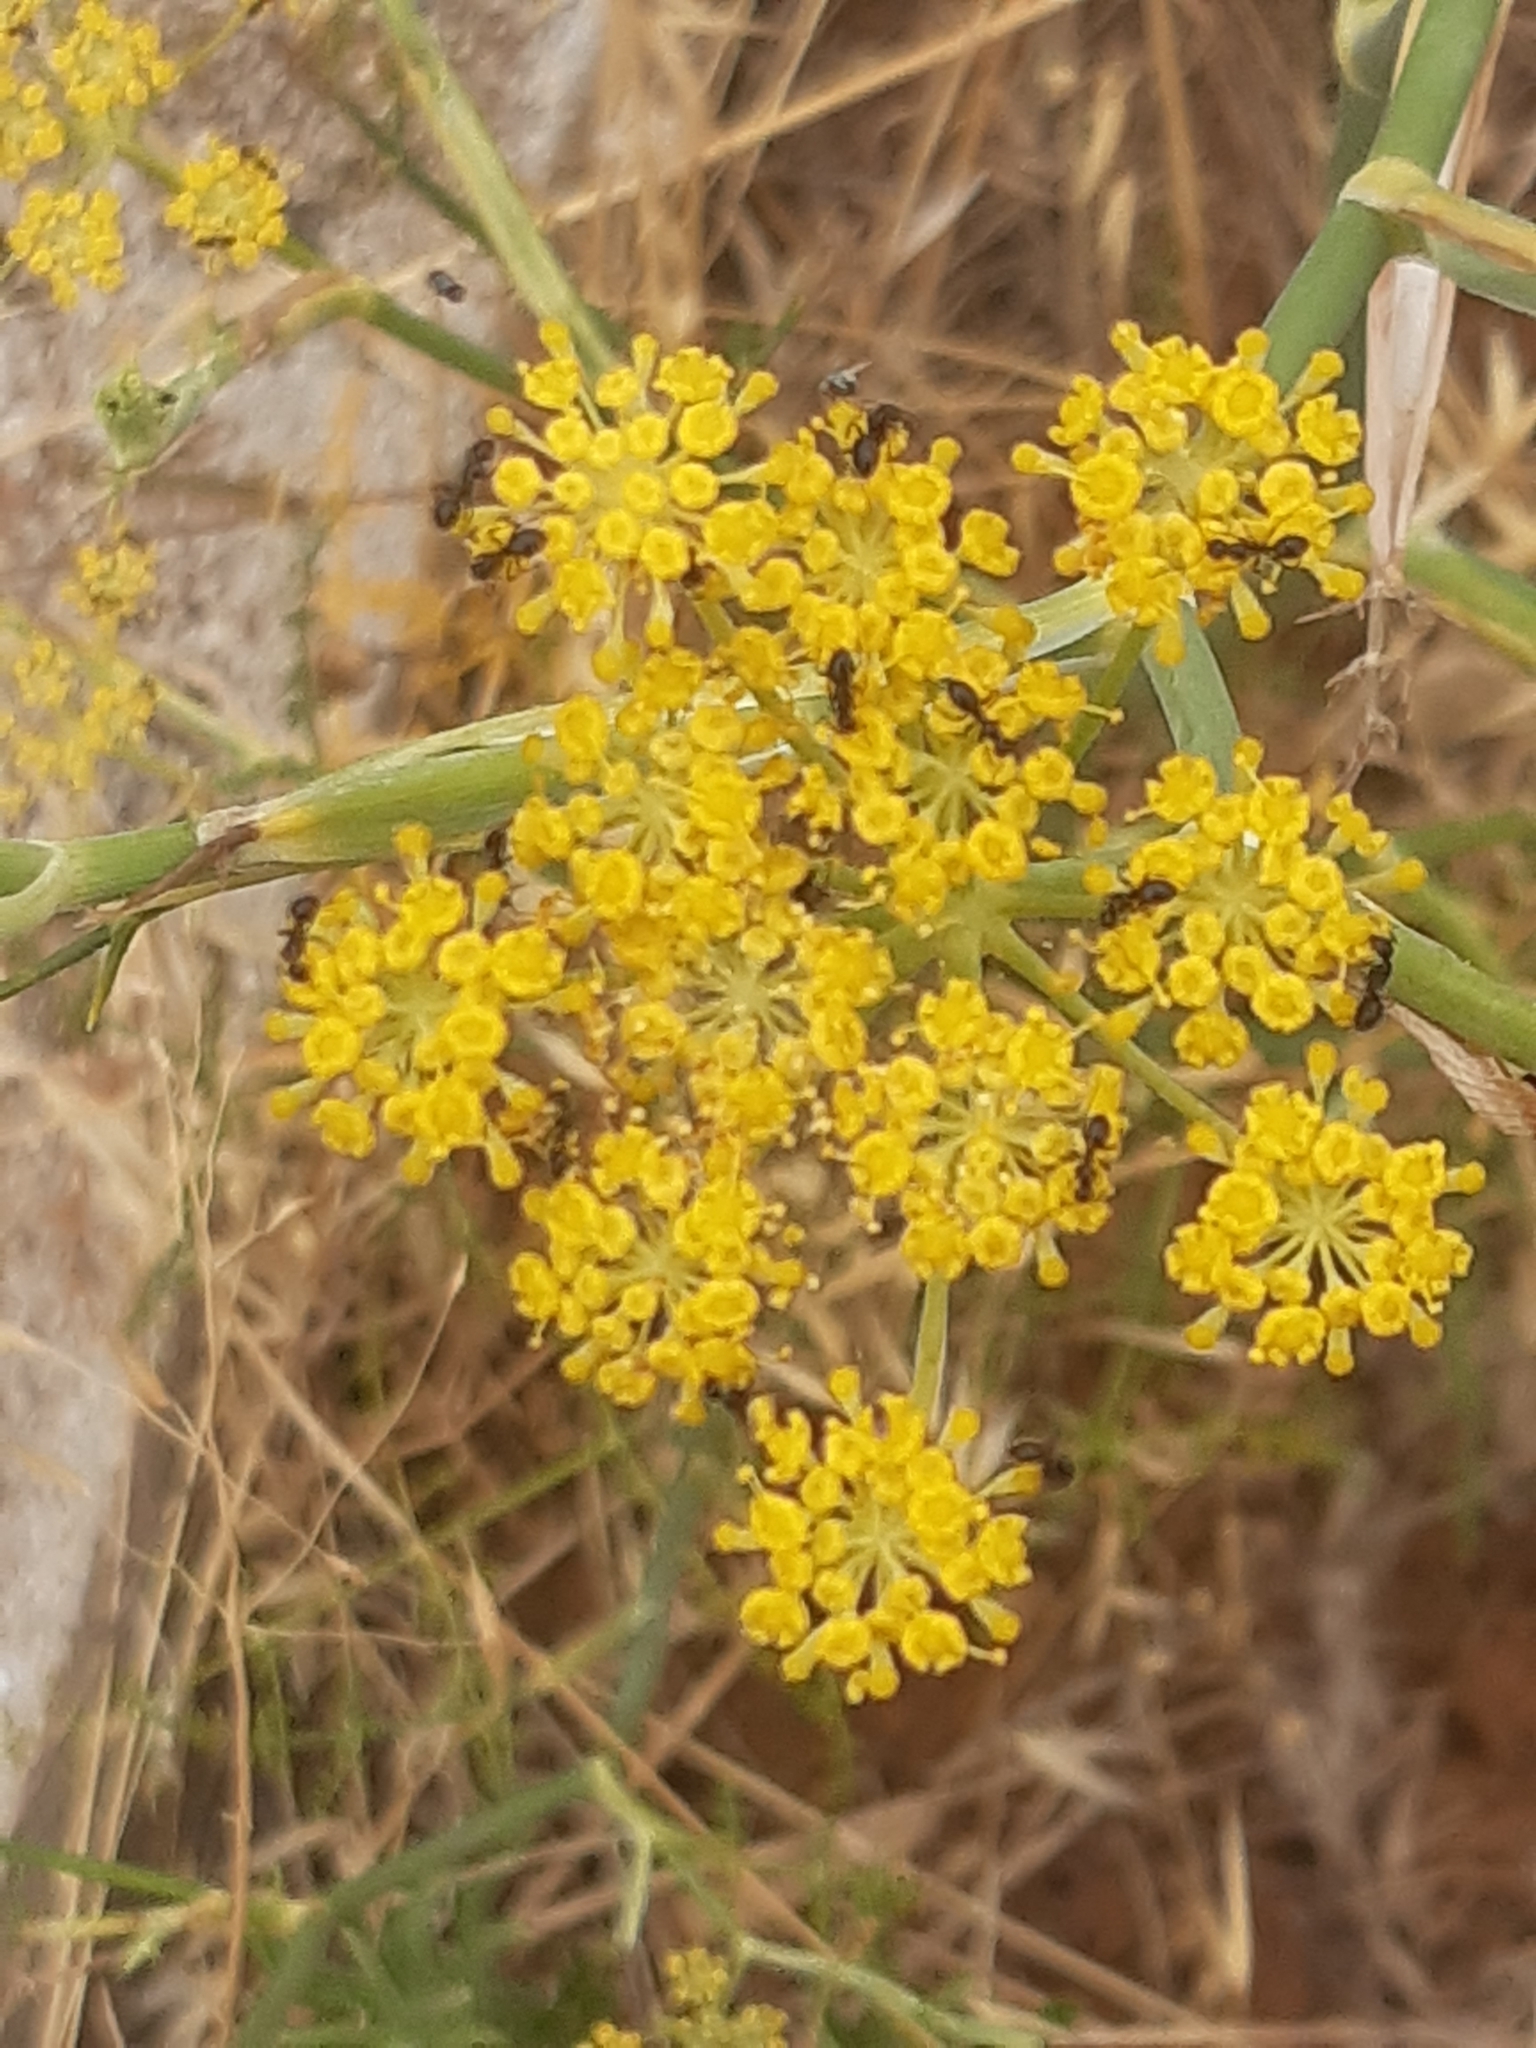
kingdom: Plantae
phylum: Tracheophyta
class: Magnoliopsida
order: Apiales
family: Apiaceae
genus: Foeniculum
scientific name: Foeniculum vulgare
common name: Fennel
